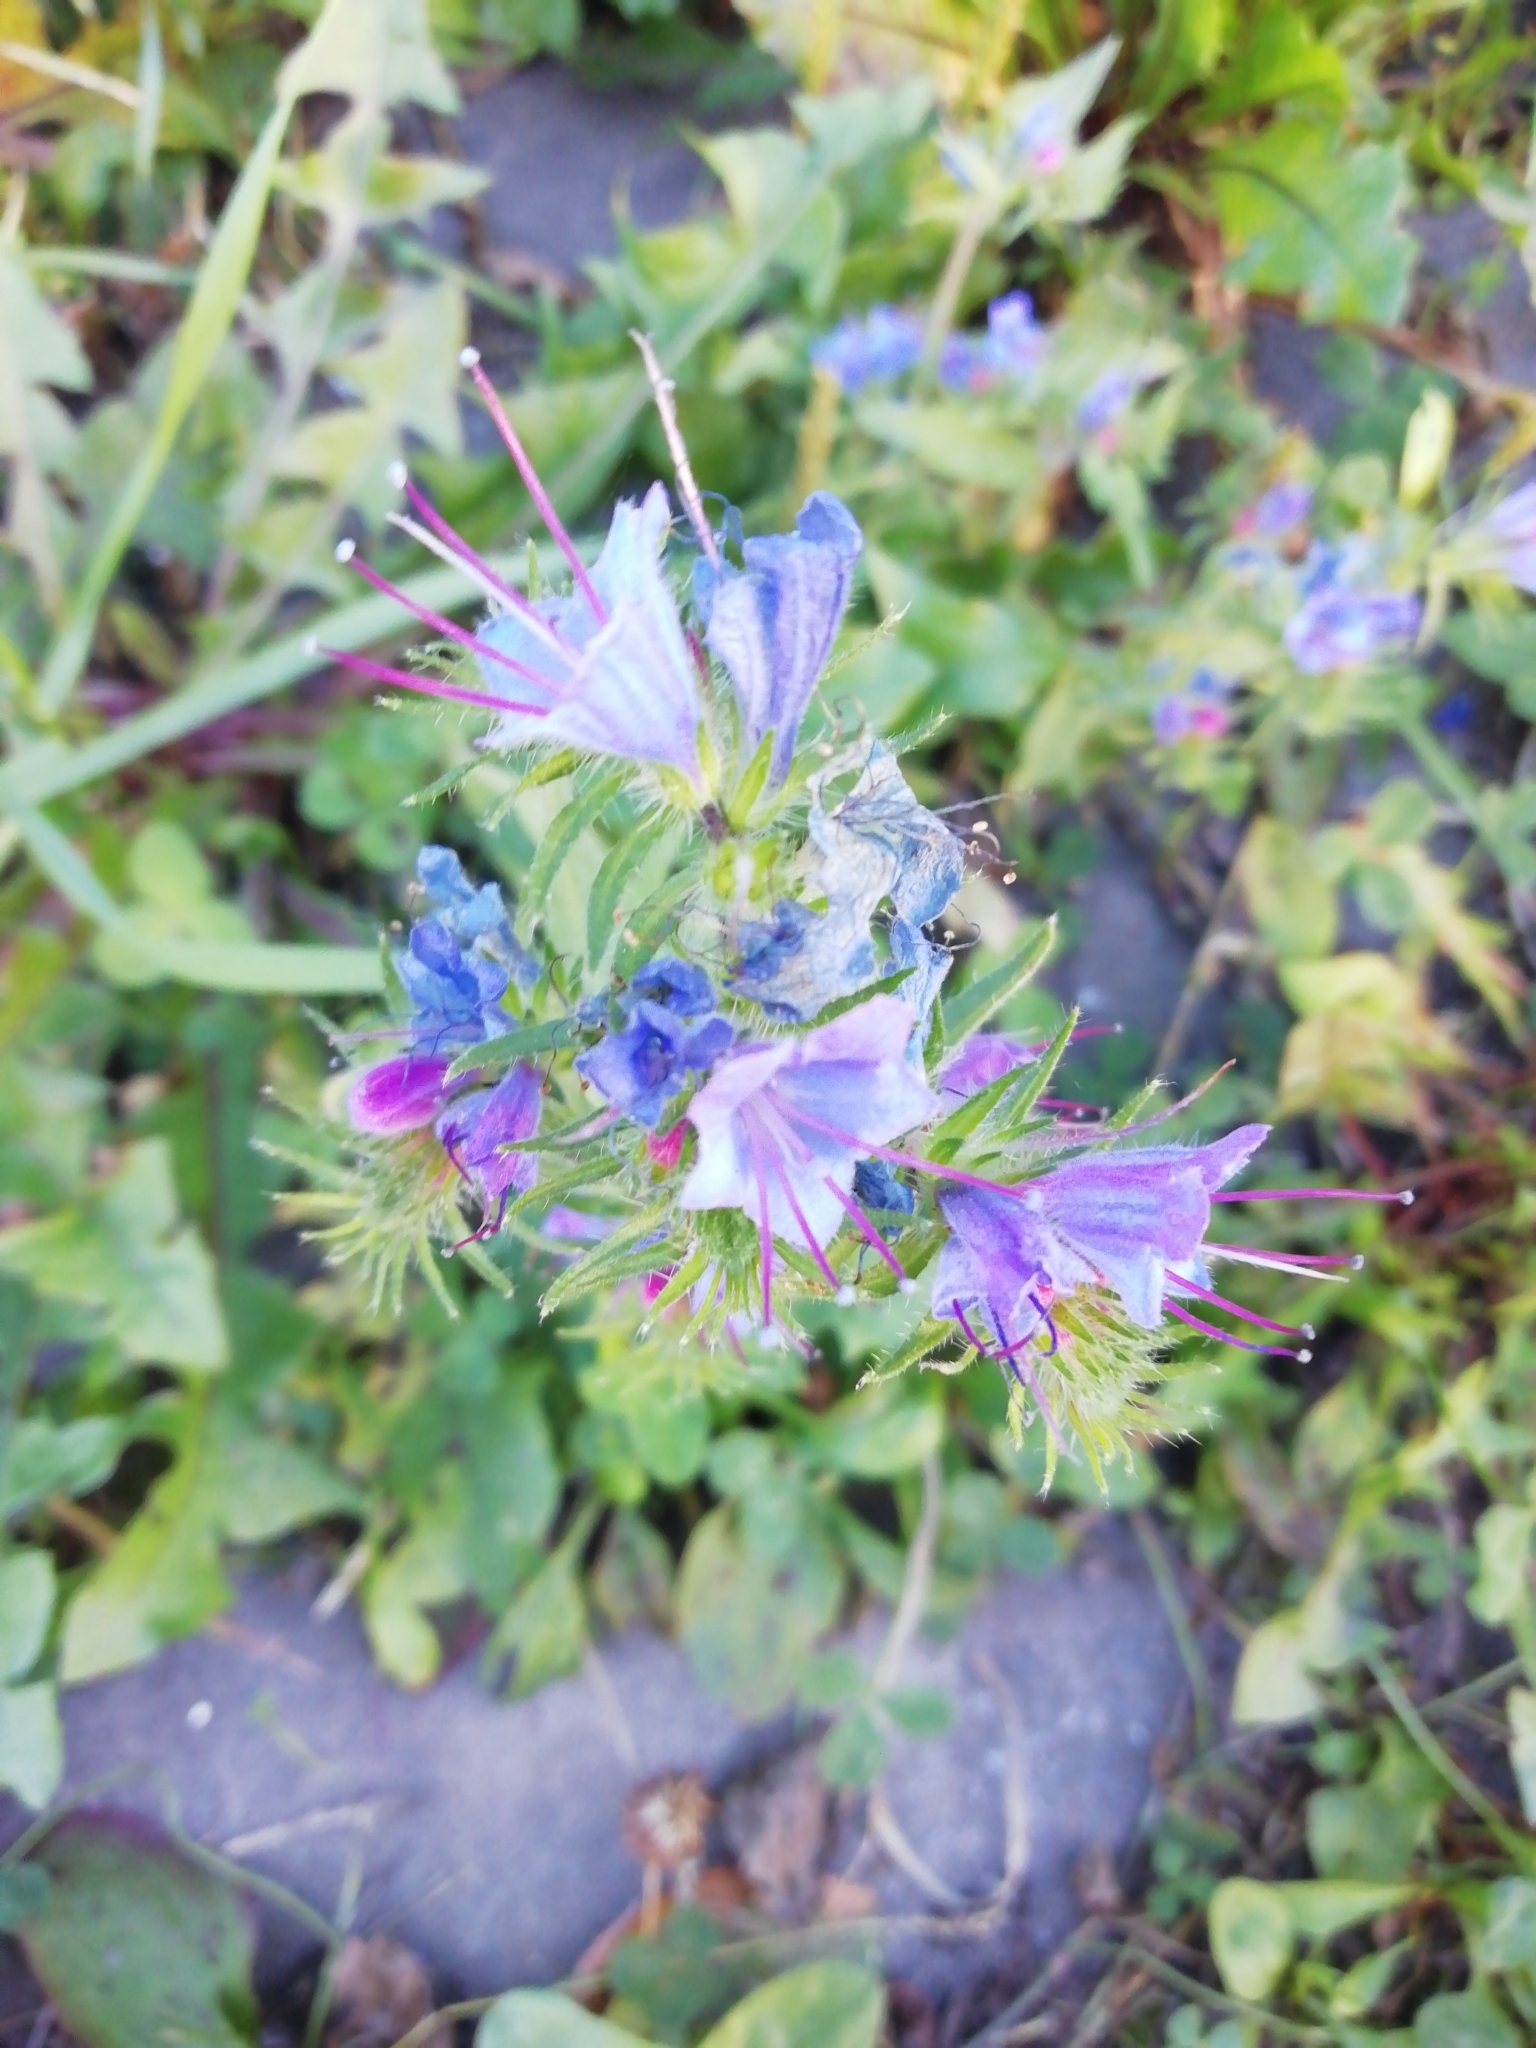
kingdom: Plantae
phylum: Tracheophyta
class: Magnoliopsida
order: Boraginales
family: Boraginaceae
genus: Echium
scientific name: Echium vulgare
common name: Common viper's bugloss
